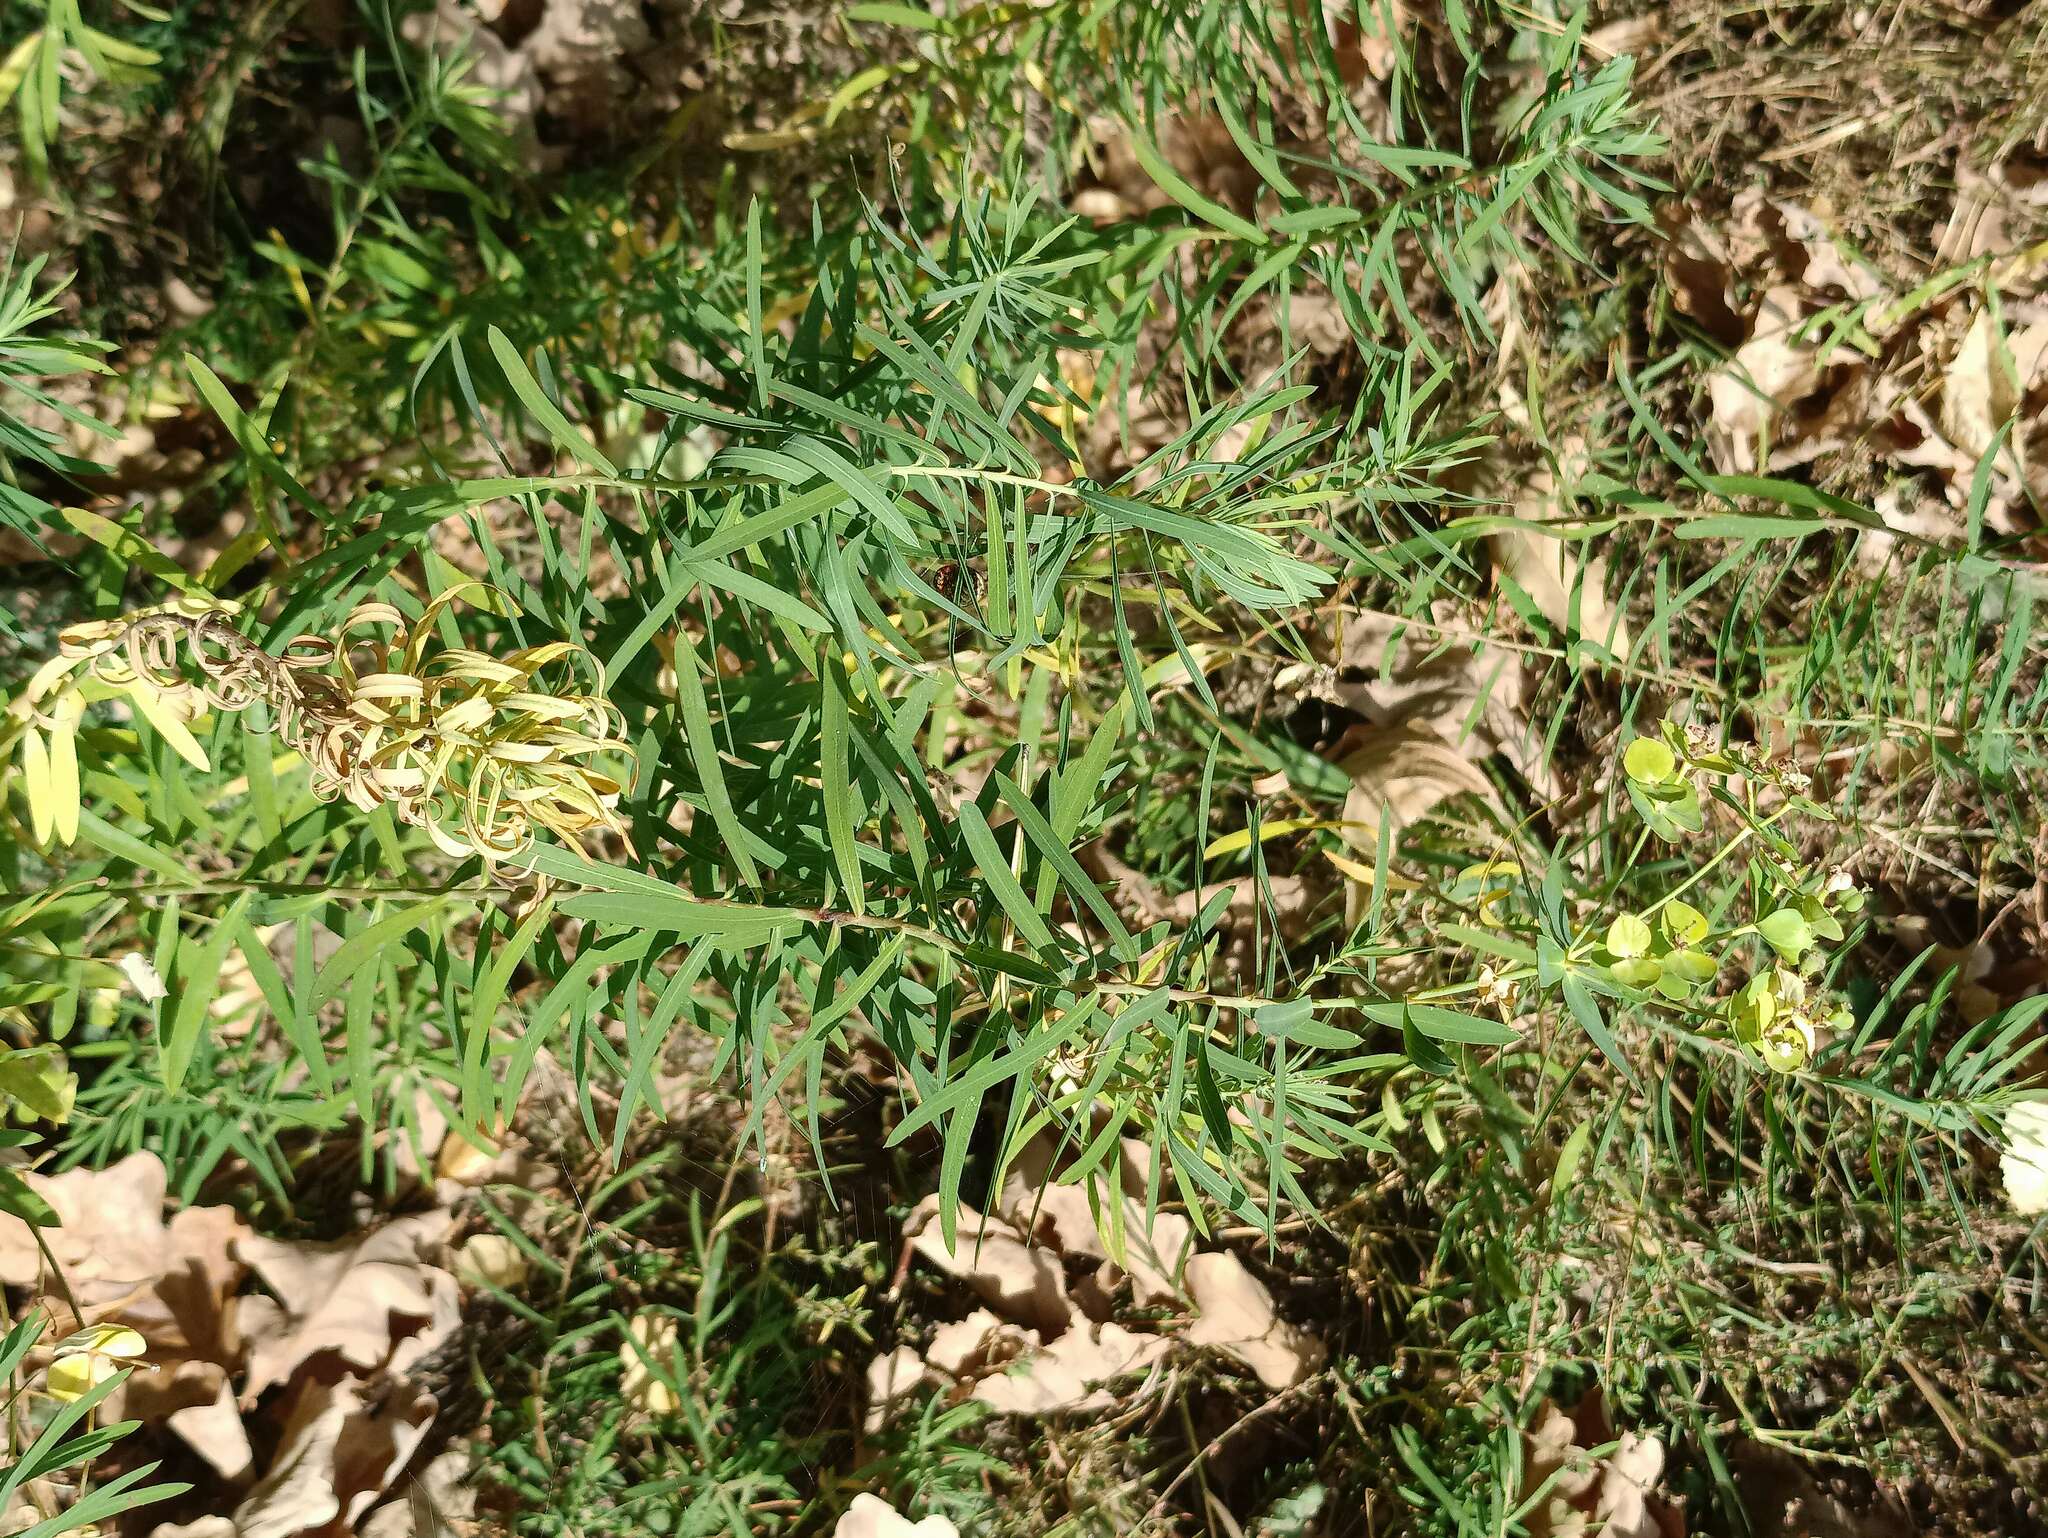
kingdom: Plantae
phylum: Tracheophyta
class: Magnoliopsida
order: Malpighiales
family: Euphorbiaceae
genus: Euphorbia
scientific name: Euphorbia virgata
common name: Leafy spurge
